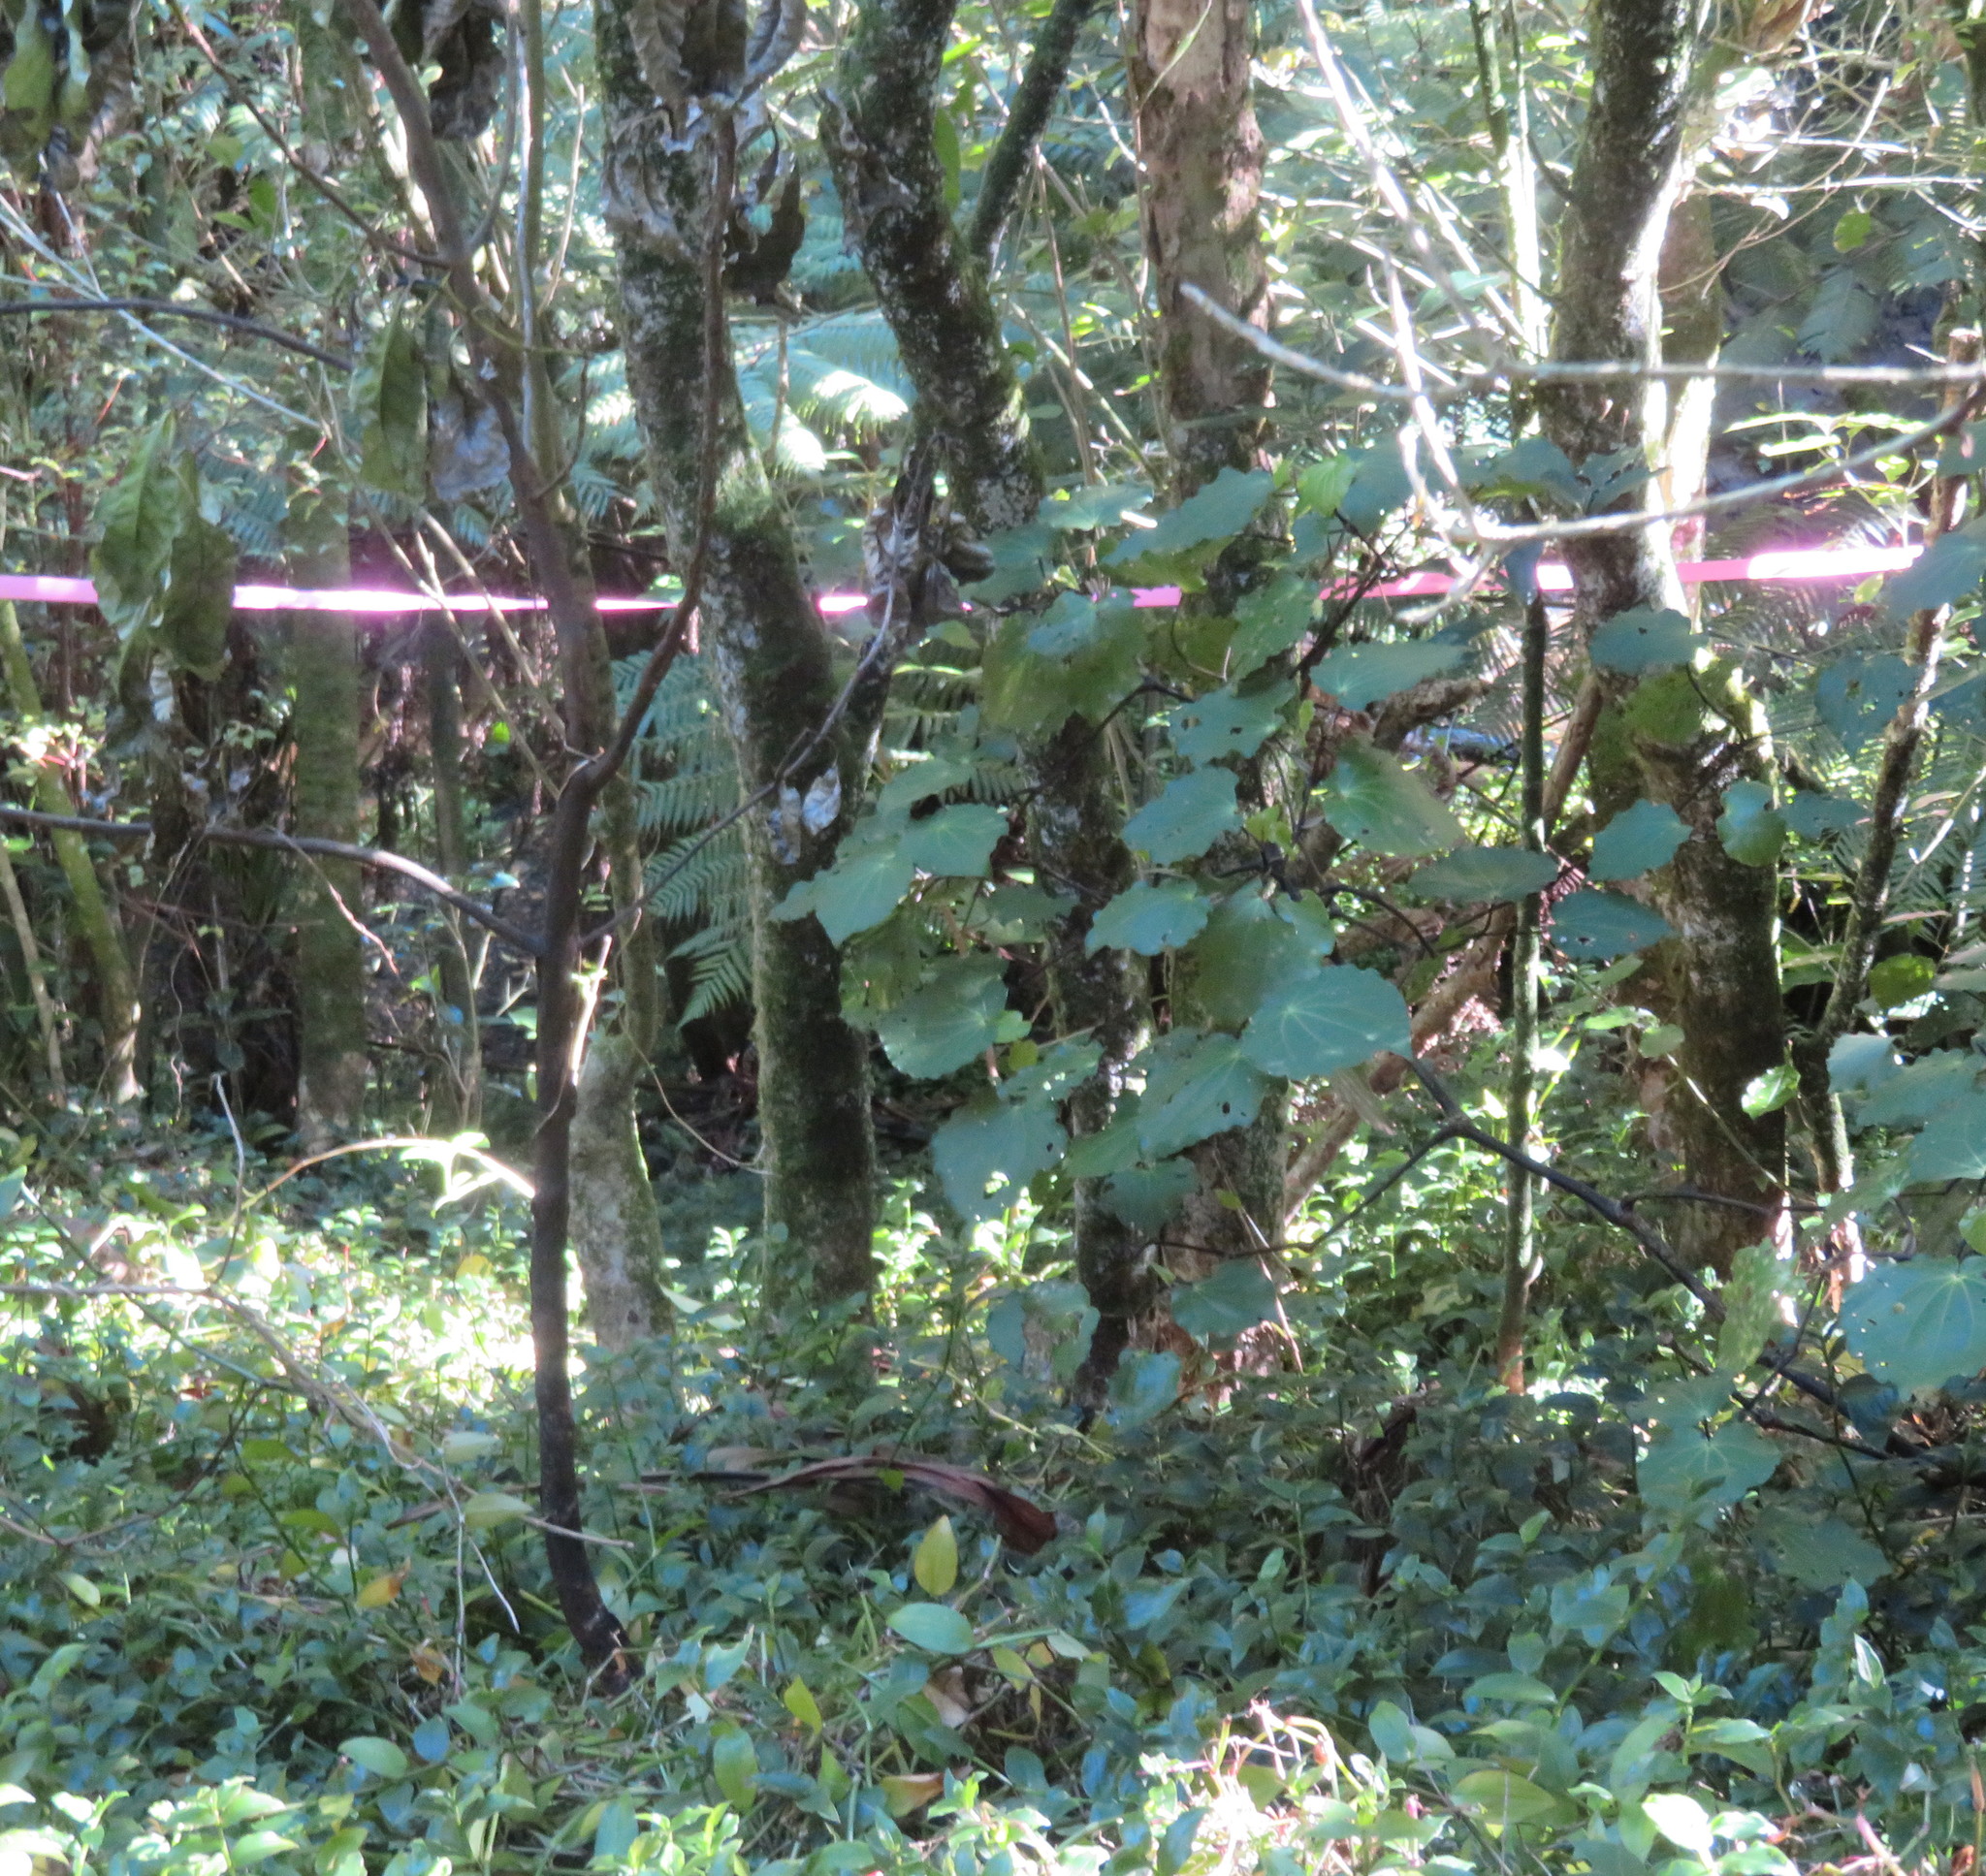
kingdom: Plantae
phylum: Tracheophyta
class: Magnoliopsida
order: Piperales
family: Piperaceae
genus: Macropiper
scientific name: Macropiper excelsum
